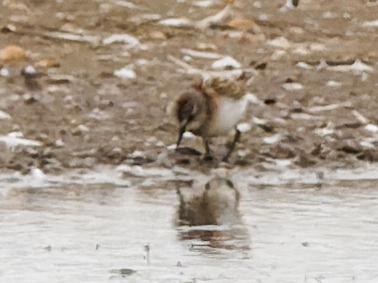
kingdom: Animalia
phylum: Chordata
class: Aves
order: Charadriiformes
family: Scolopacidae
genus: Calidris
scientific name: Calidris minuta
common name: Little stint
